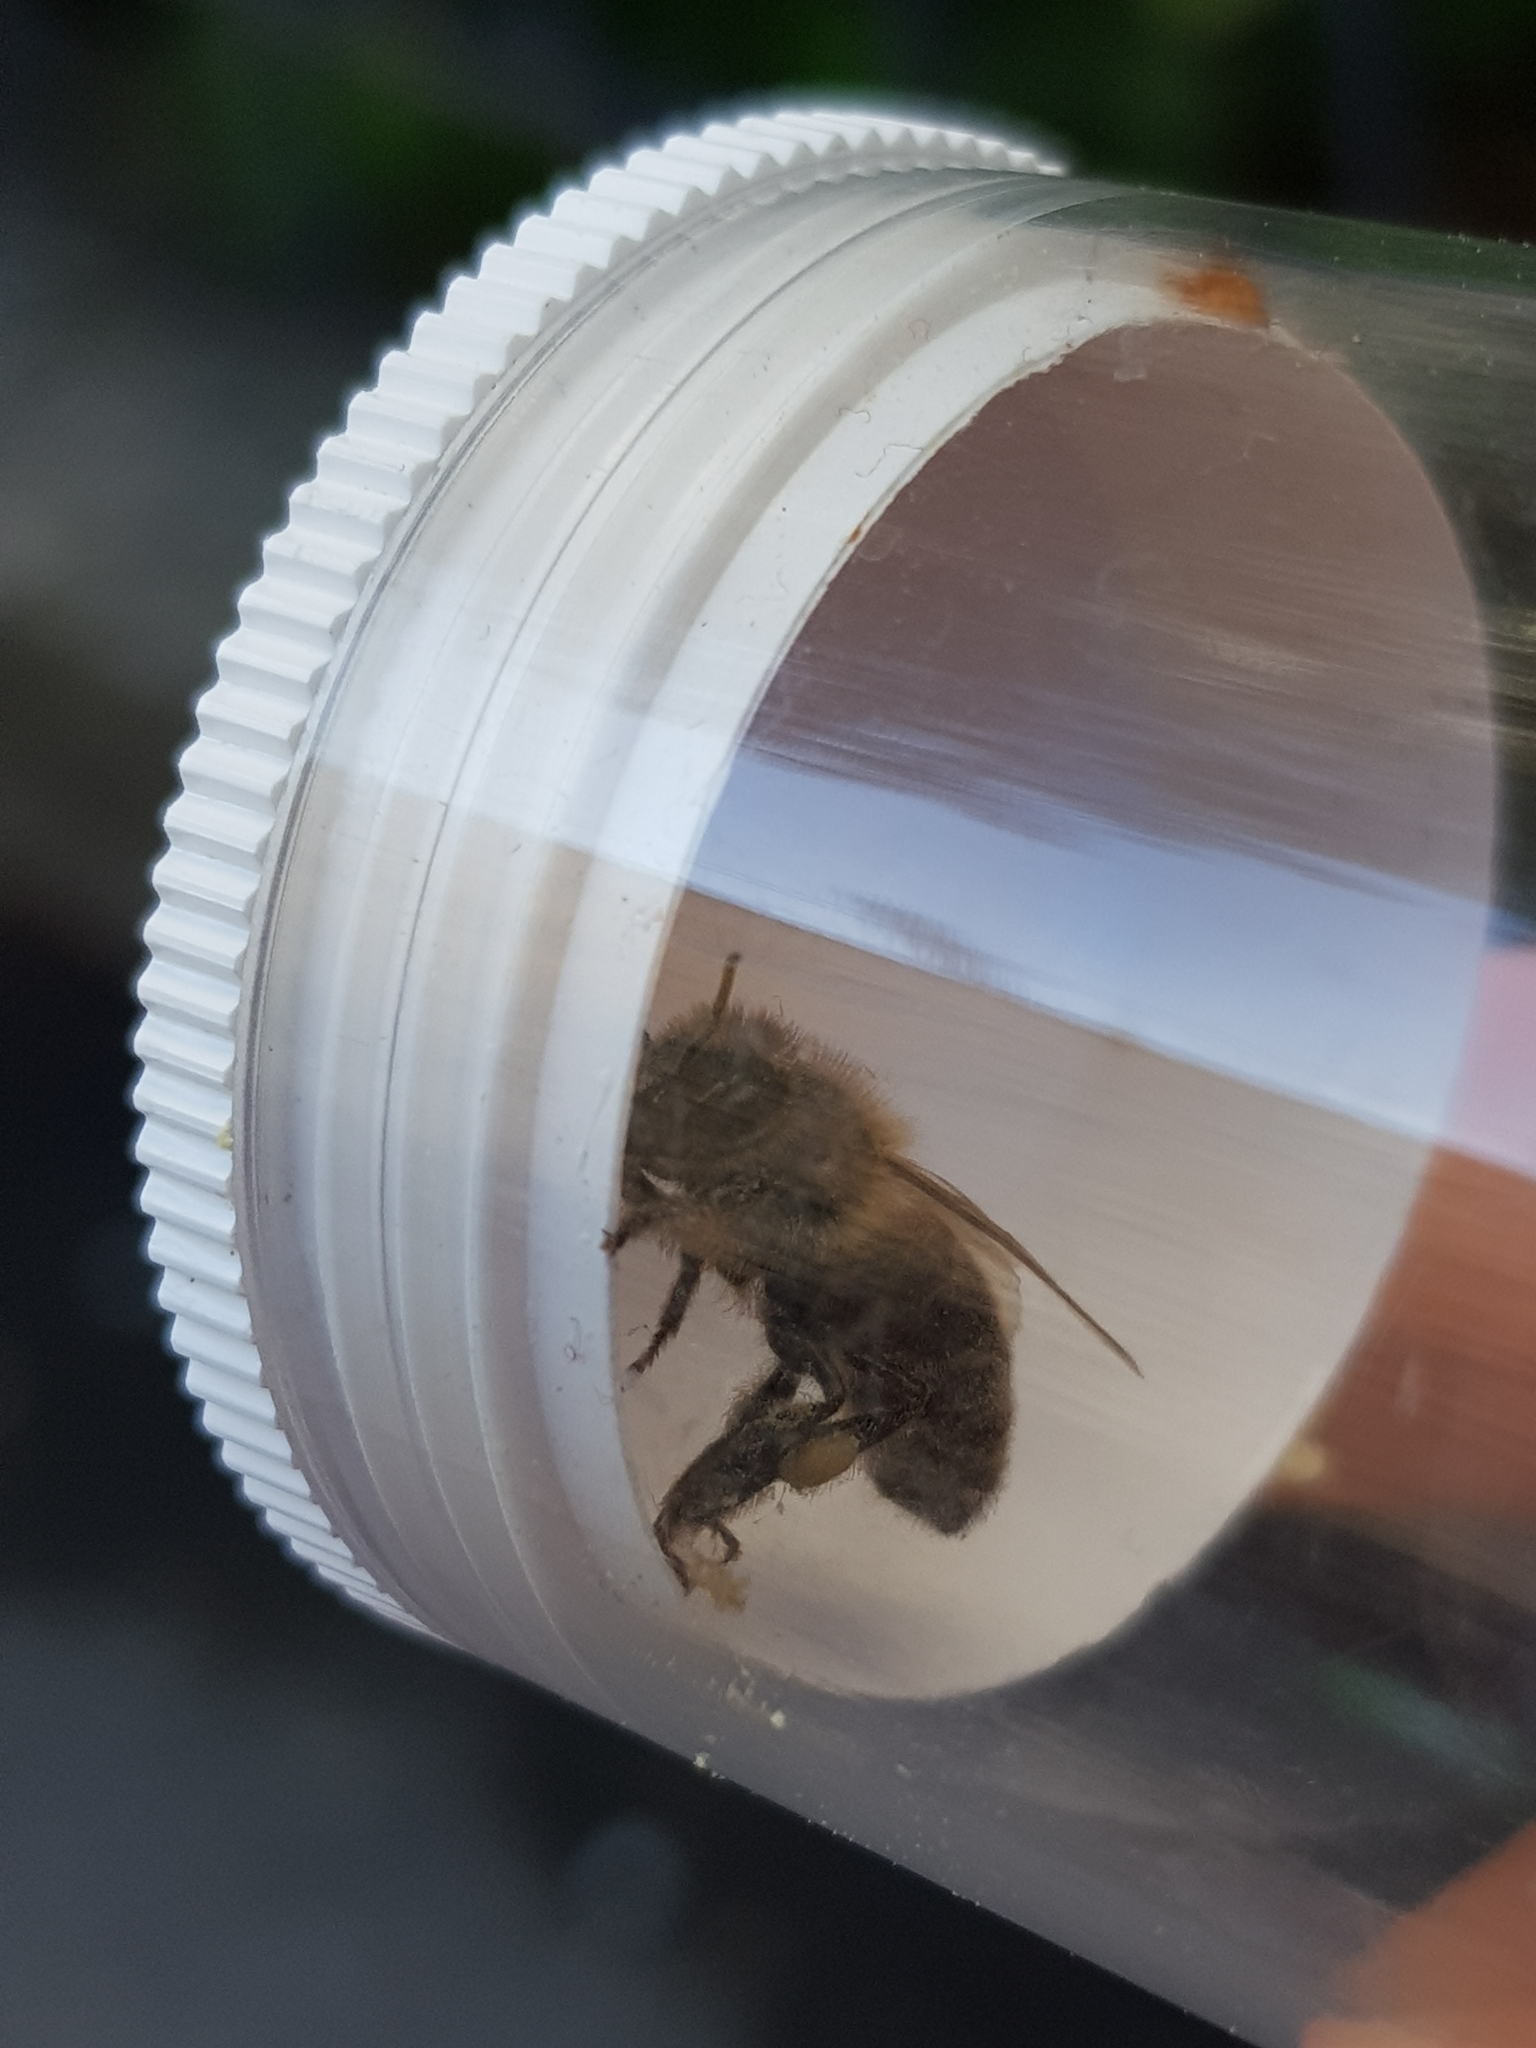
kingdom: Animalia
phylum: Arthropoda
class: Insecta
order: Hymenoptera
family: Apidae
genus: Apis
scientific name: Apis mellifera
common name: Honey bee
